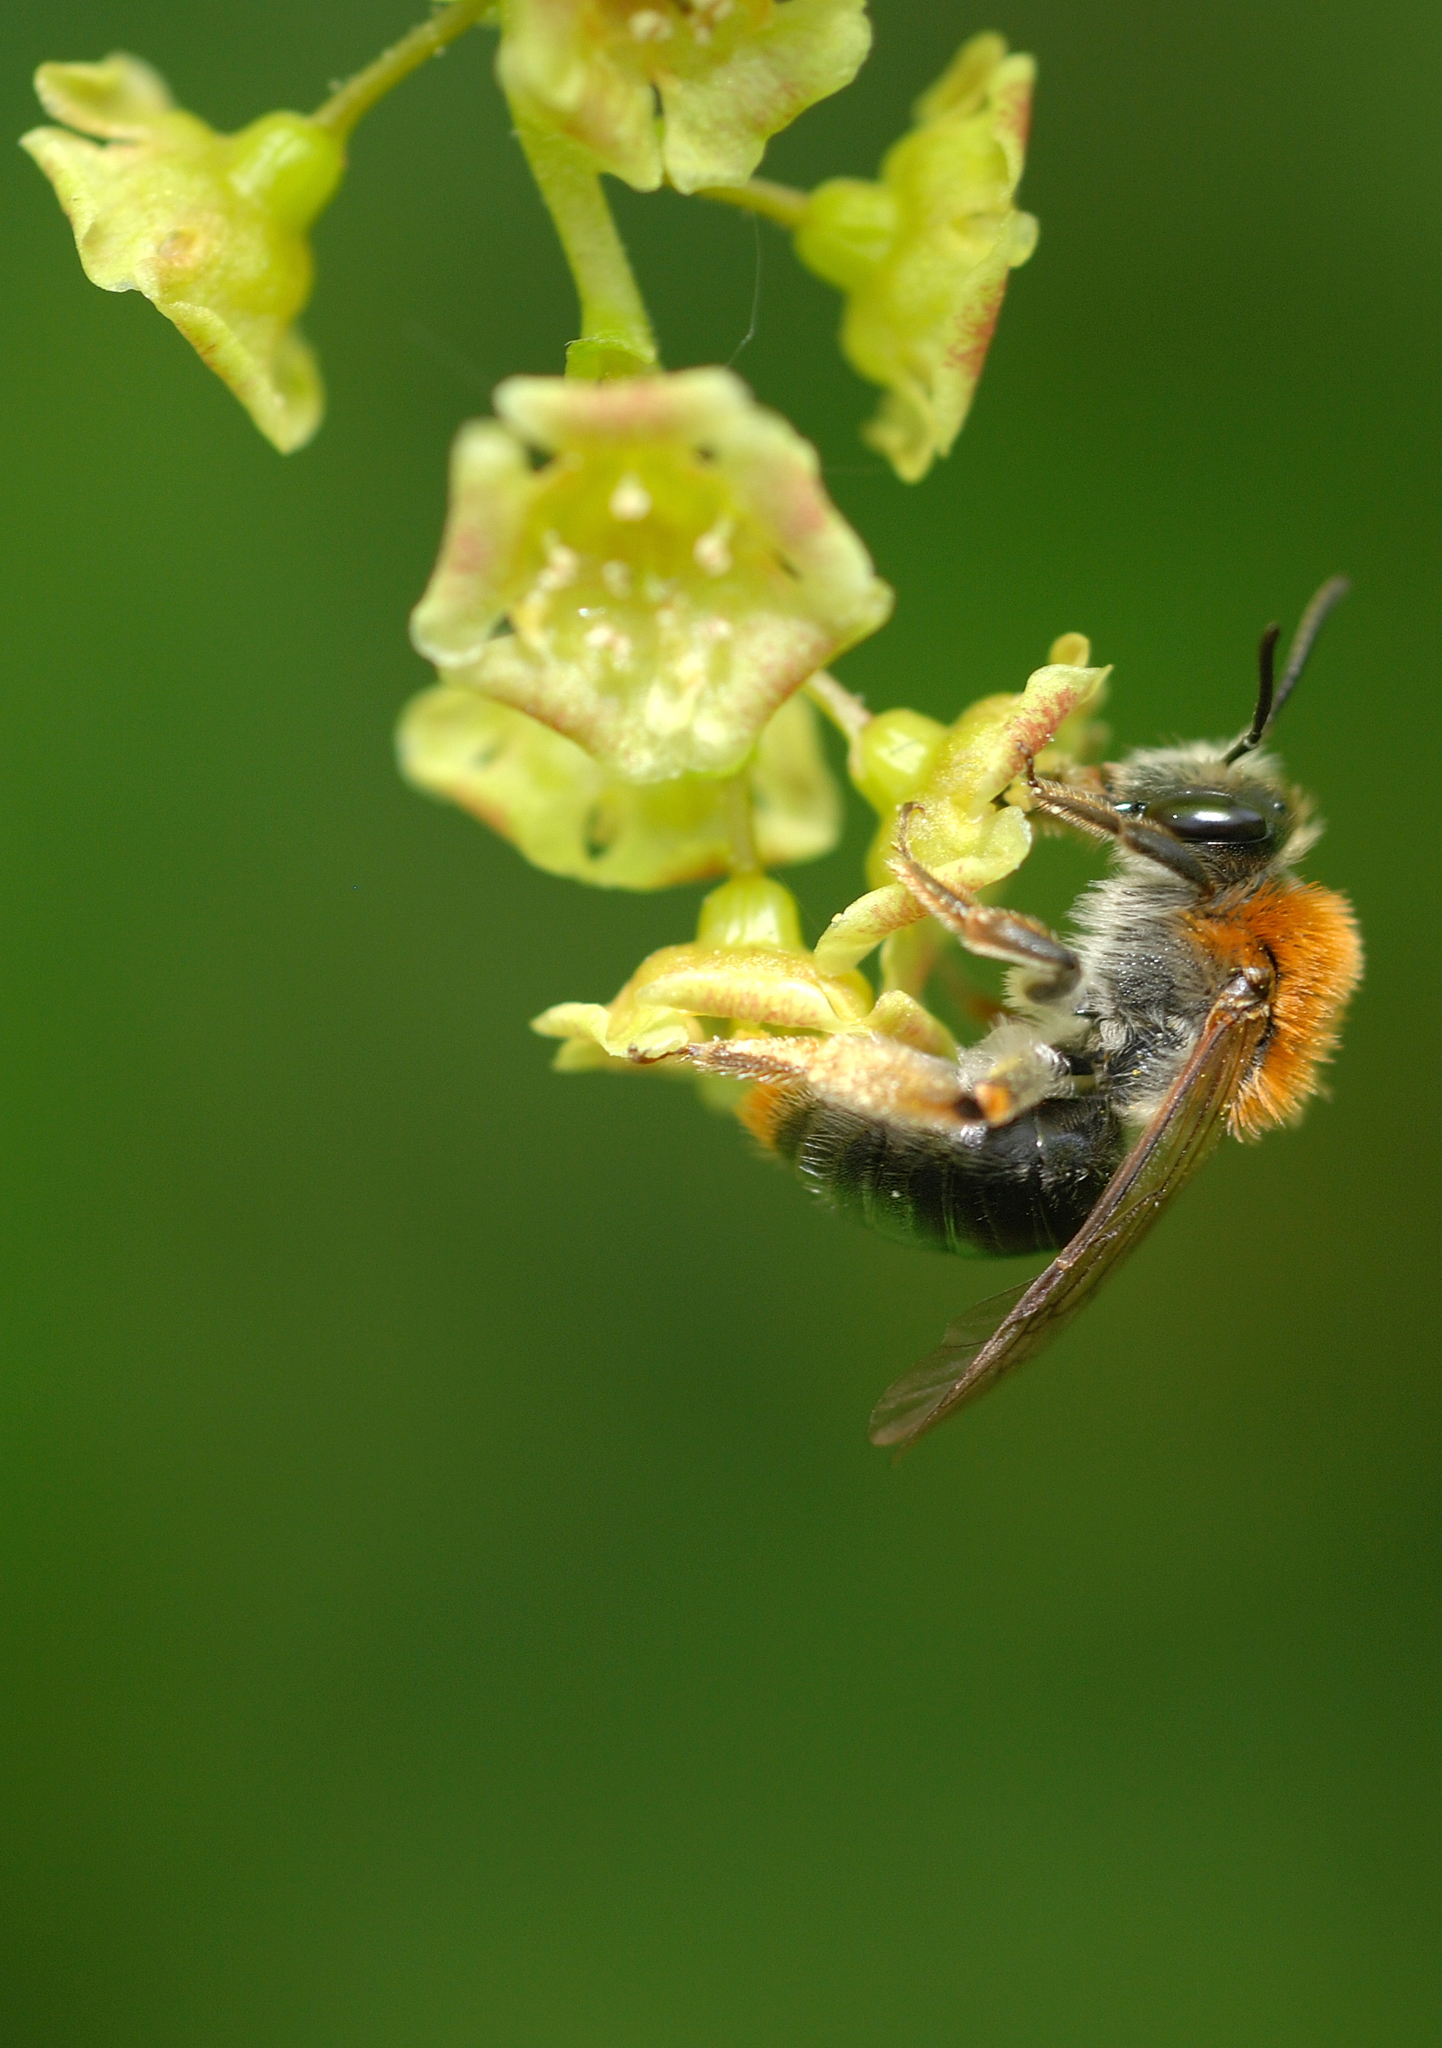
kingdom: Animalia
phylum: Arthropoda
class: Insecta
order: Hymenoptera
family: Andrenidae
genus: Andrena
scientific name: Andrena haemorrhoa
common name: Early mining bee
